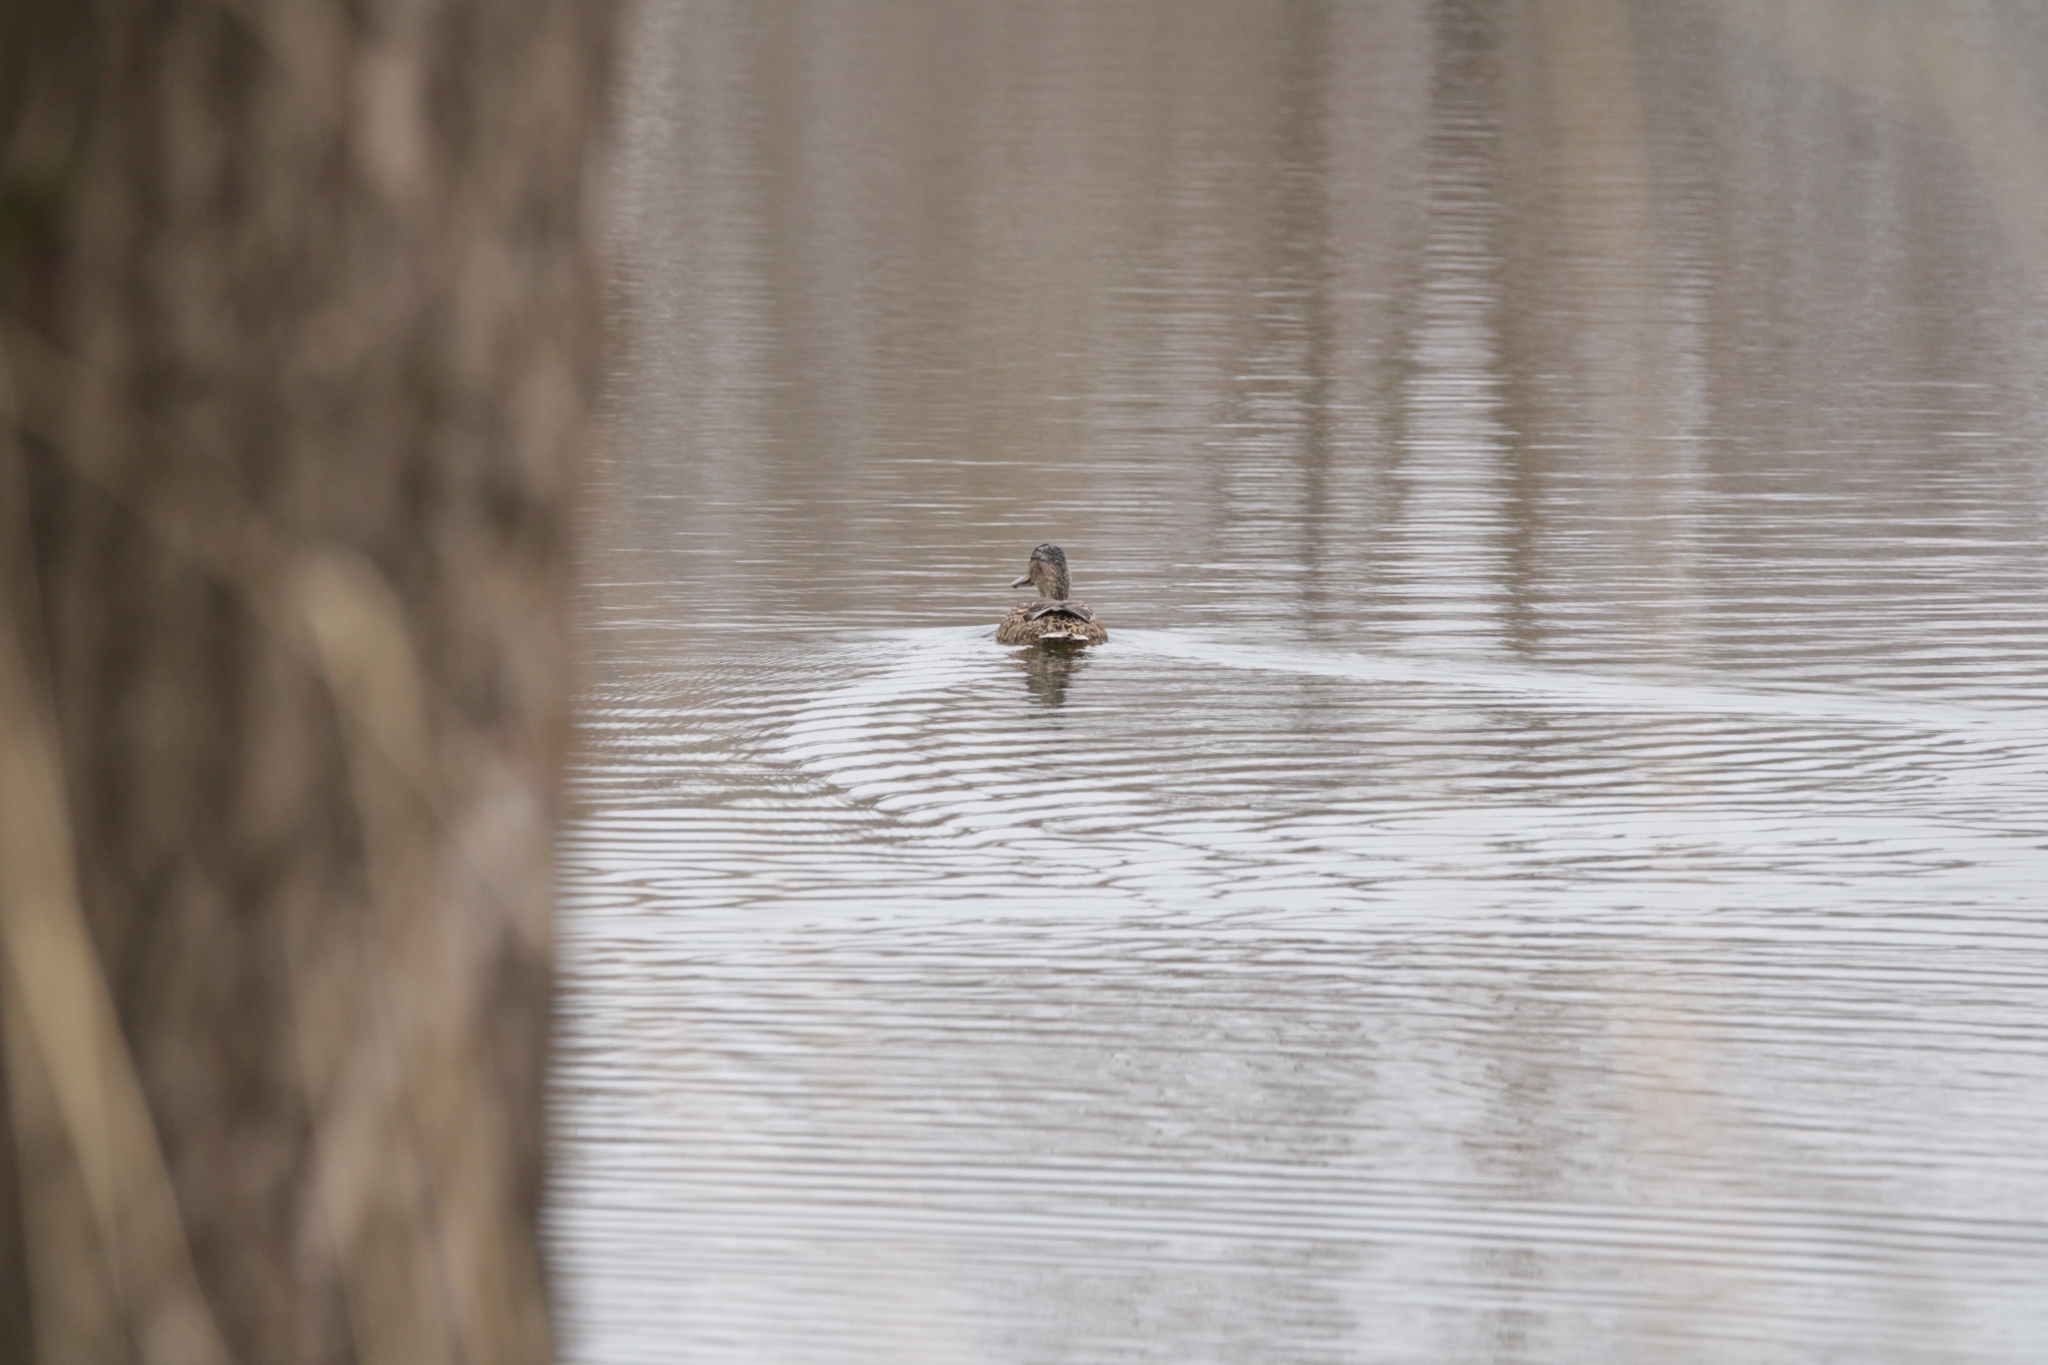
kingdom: Animalia
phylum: Chordata
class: Aves
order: Anseriformes
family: Anatidae
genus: Anas
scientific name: Anas platyrhynchos
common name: Mallard
